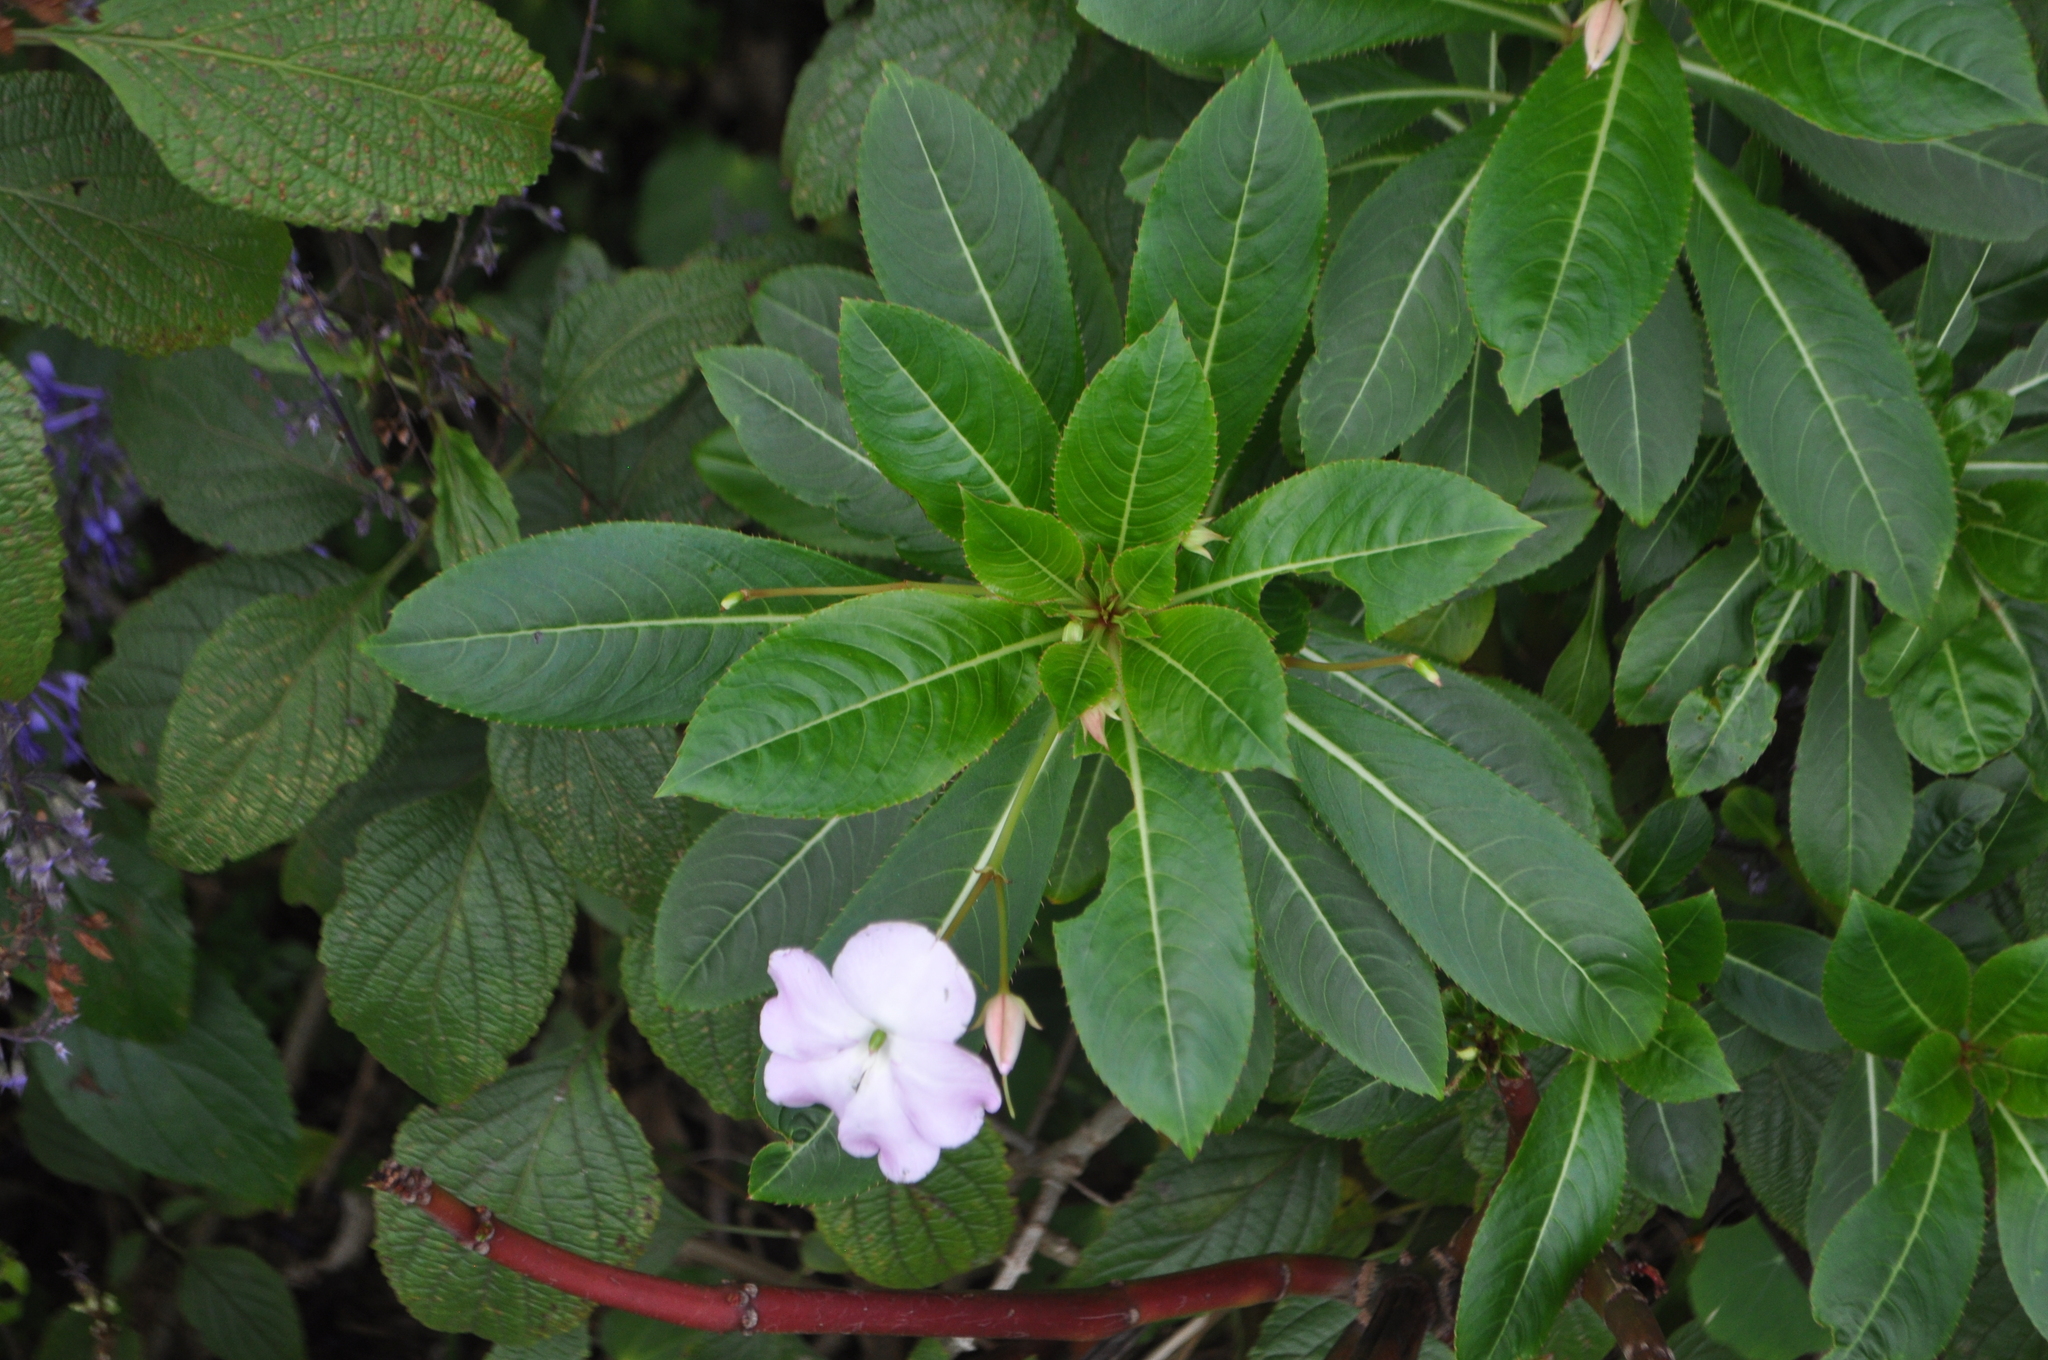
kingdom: Plantae
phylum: Tracheophyta
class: Magnoliopsida
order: Ericales
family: Balsaminaceae
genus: Impatiens
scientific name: Impatiens sodenii
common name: Oliver's touch-me-not
